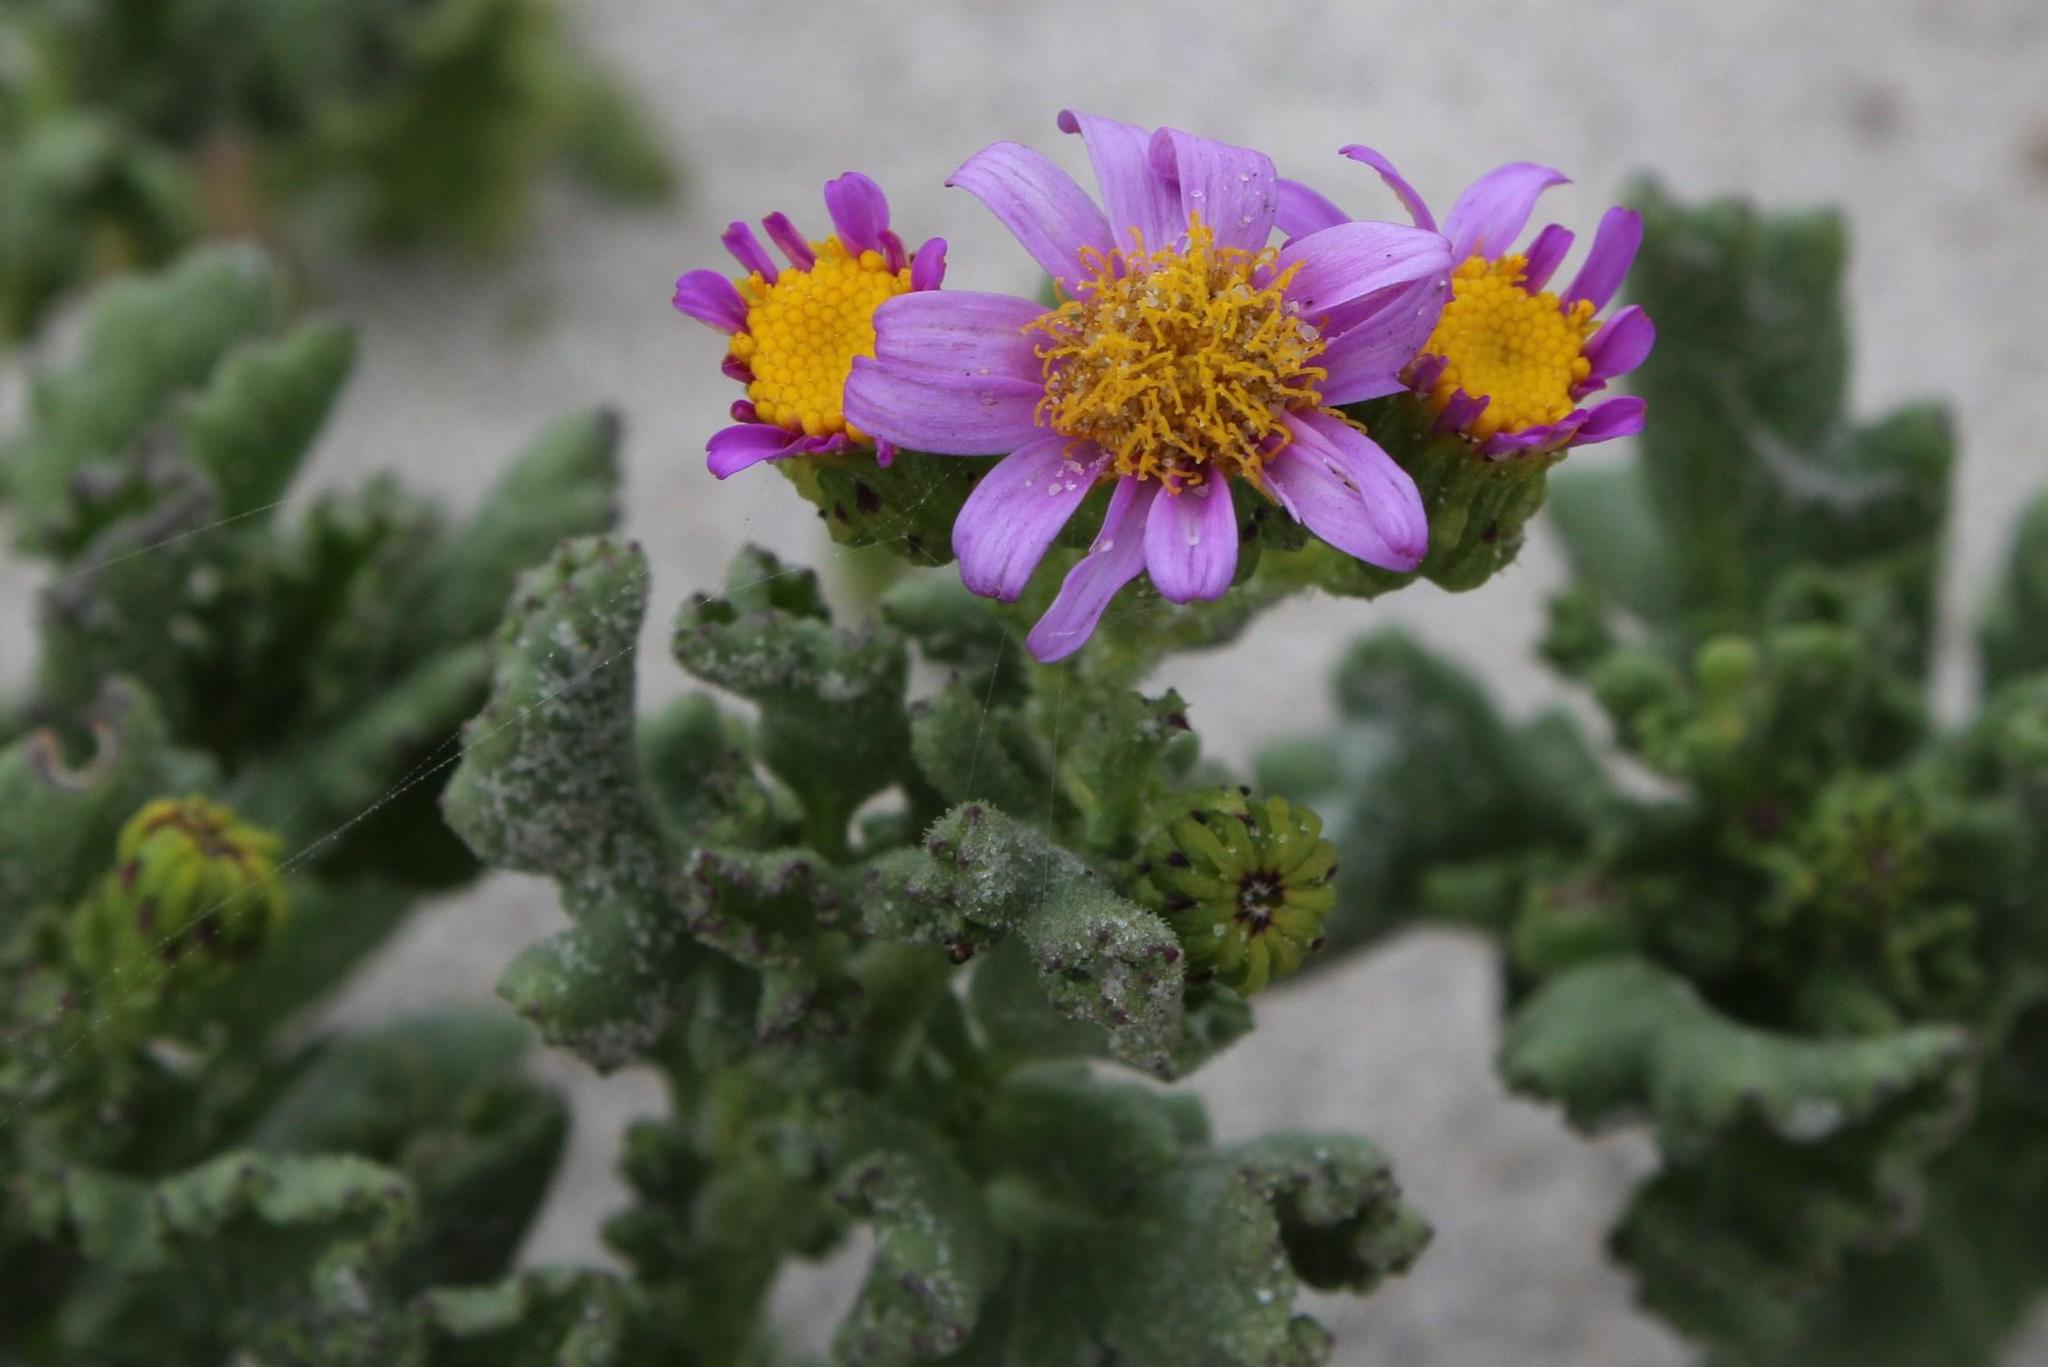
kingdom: Plantae
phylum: Tracheophyta
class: Magnoliopsida
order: Asterales
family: Asteraceae
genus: Senecio
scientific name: Senecio elegans
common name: Purple groundsel
